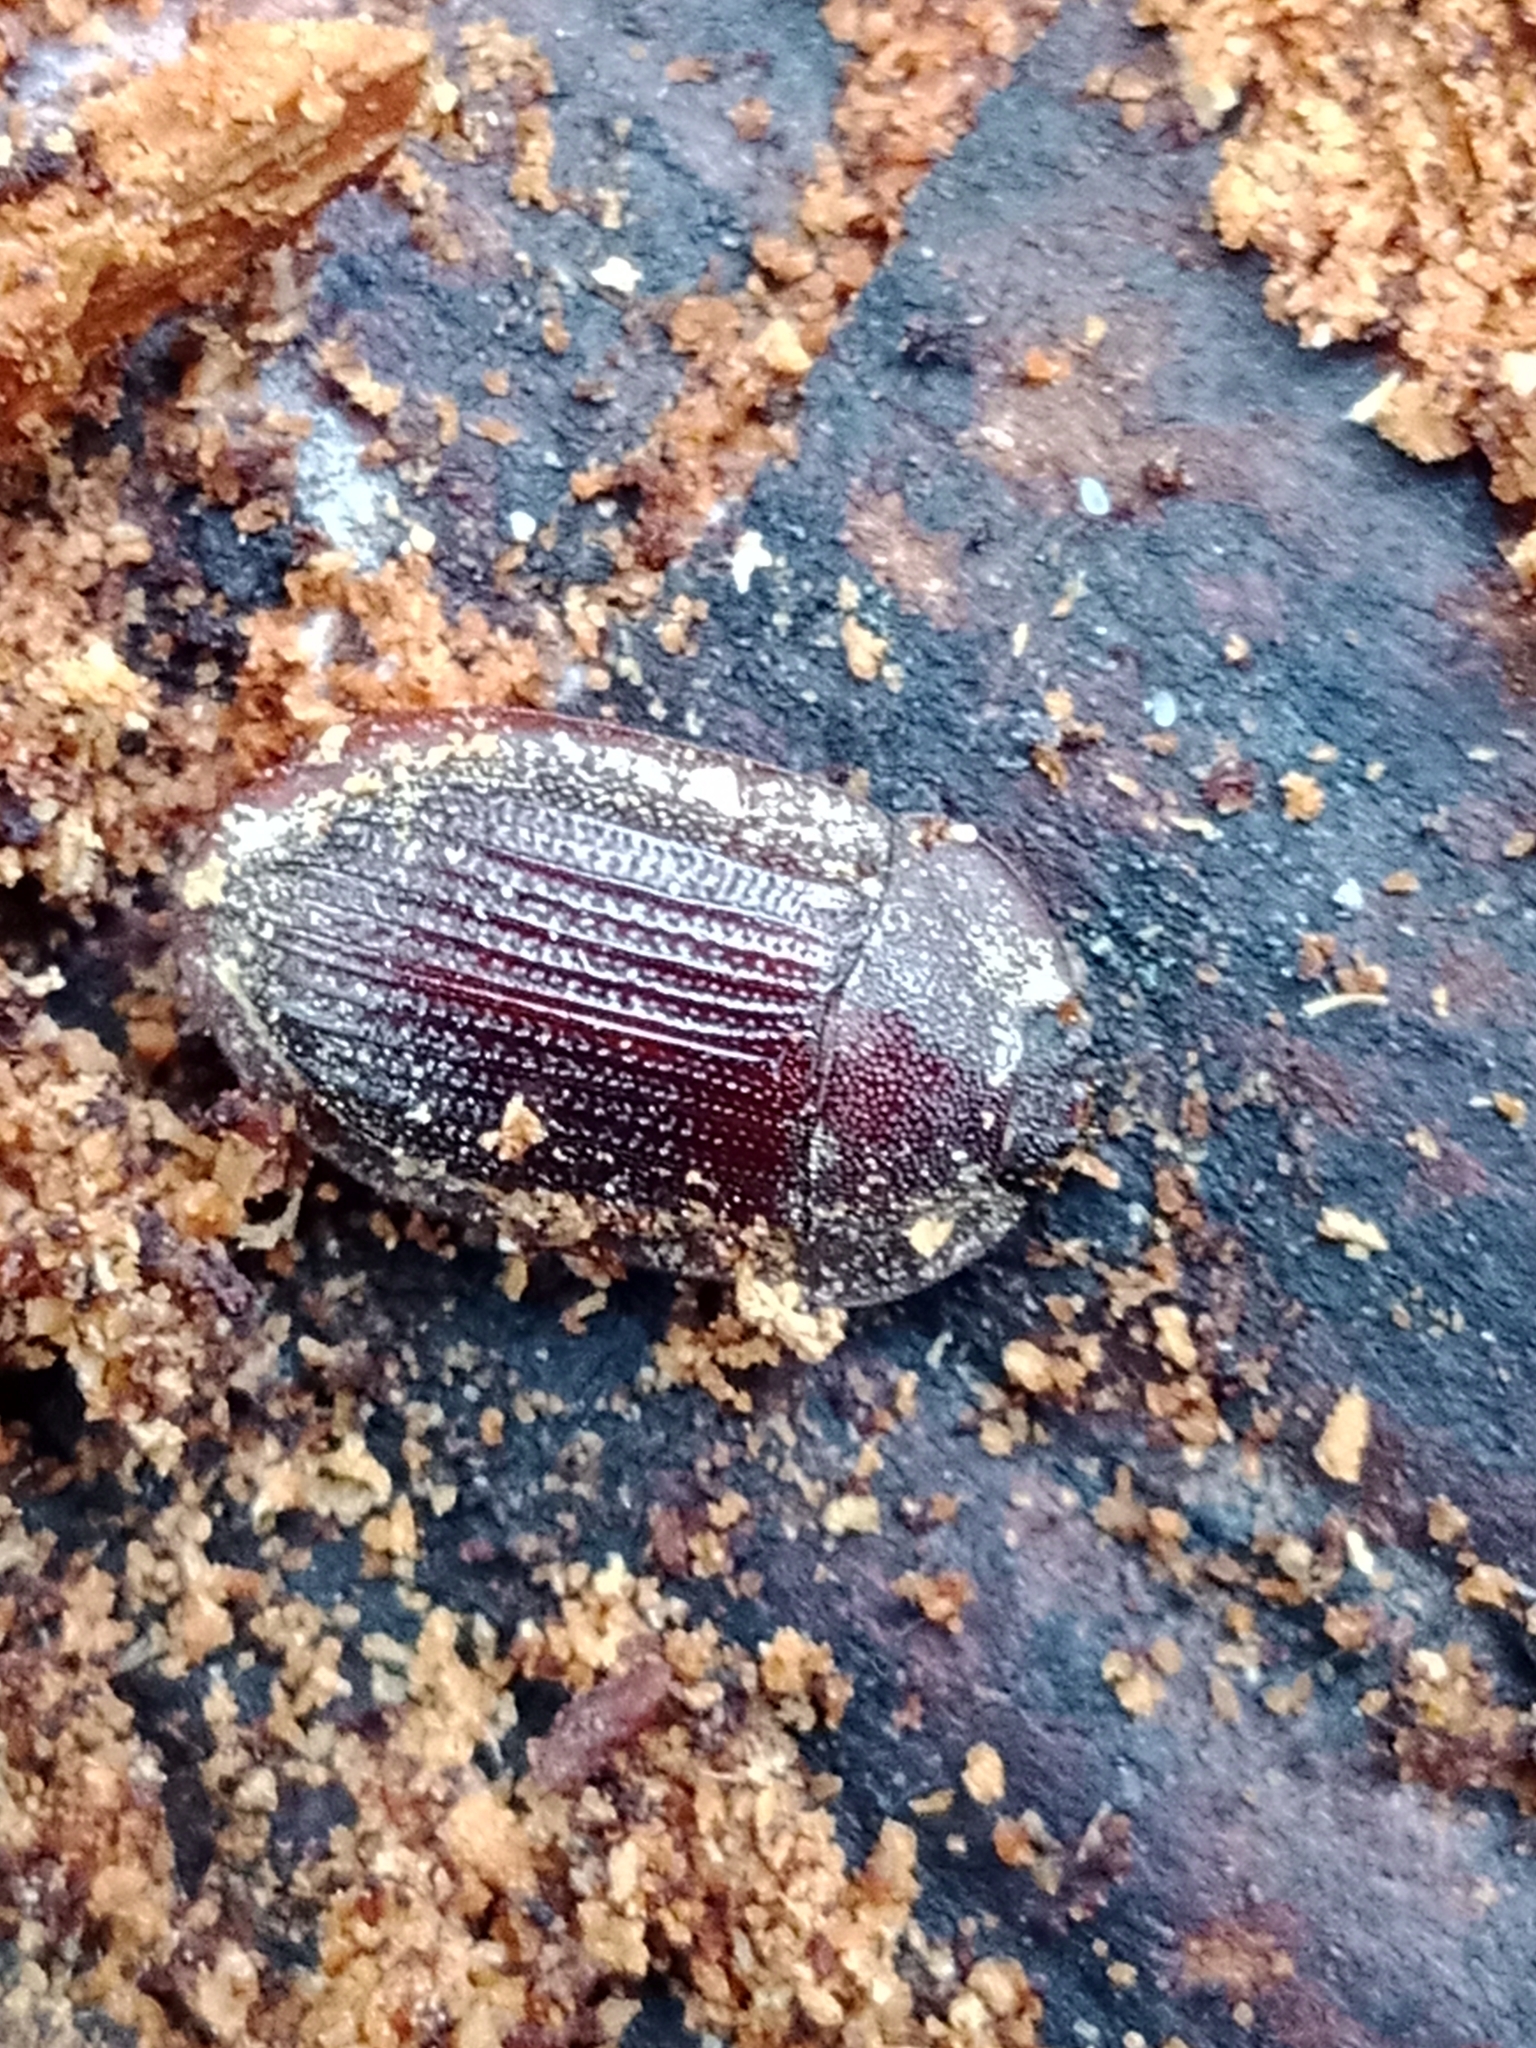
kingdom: Animalia
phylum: Arthropoda
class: Insecta
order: Coleoptera
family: Trogossitidae
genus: Peltis
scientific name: Peltis ferruginea
